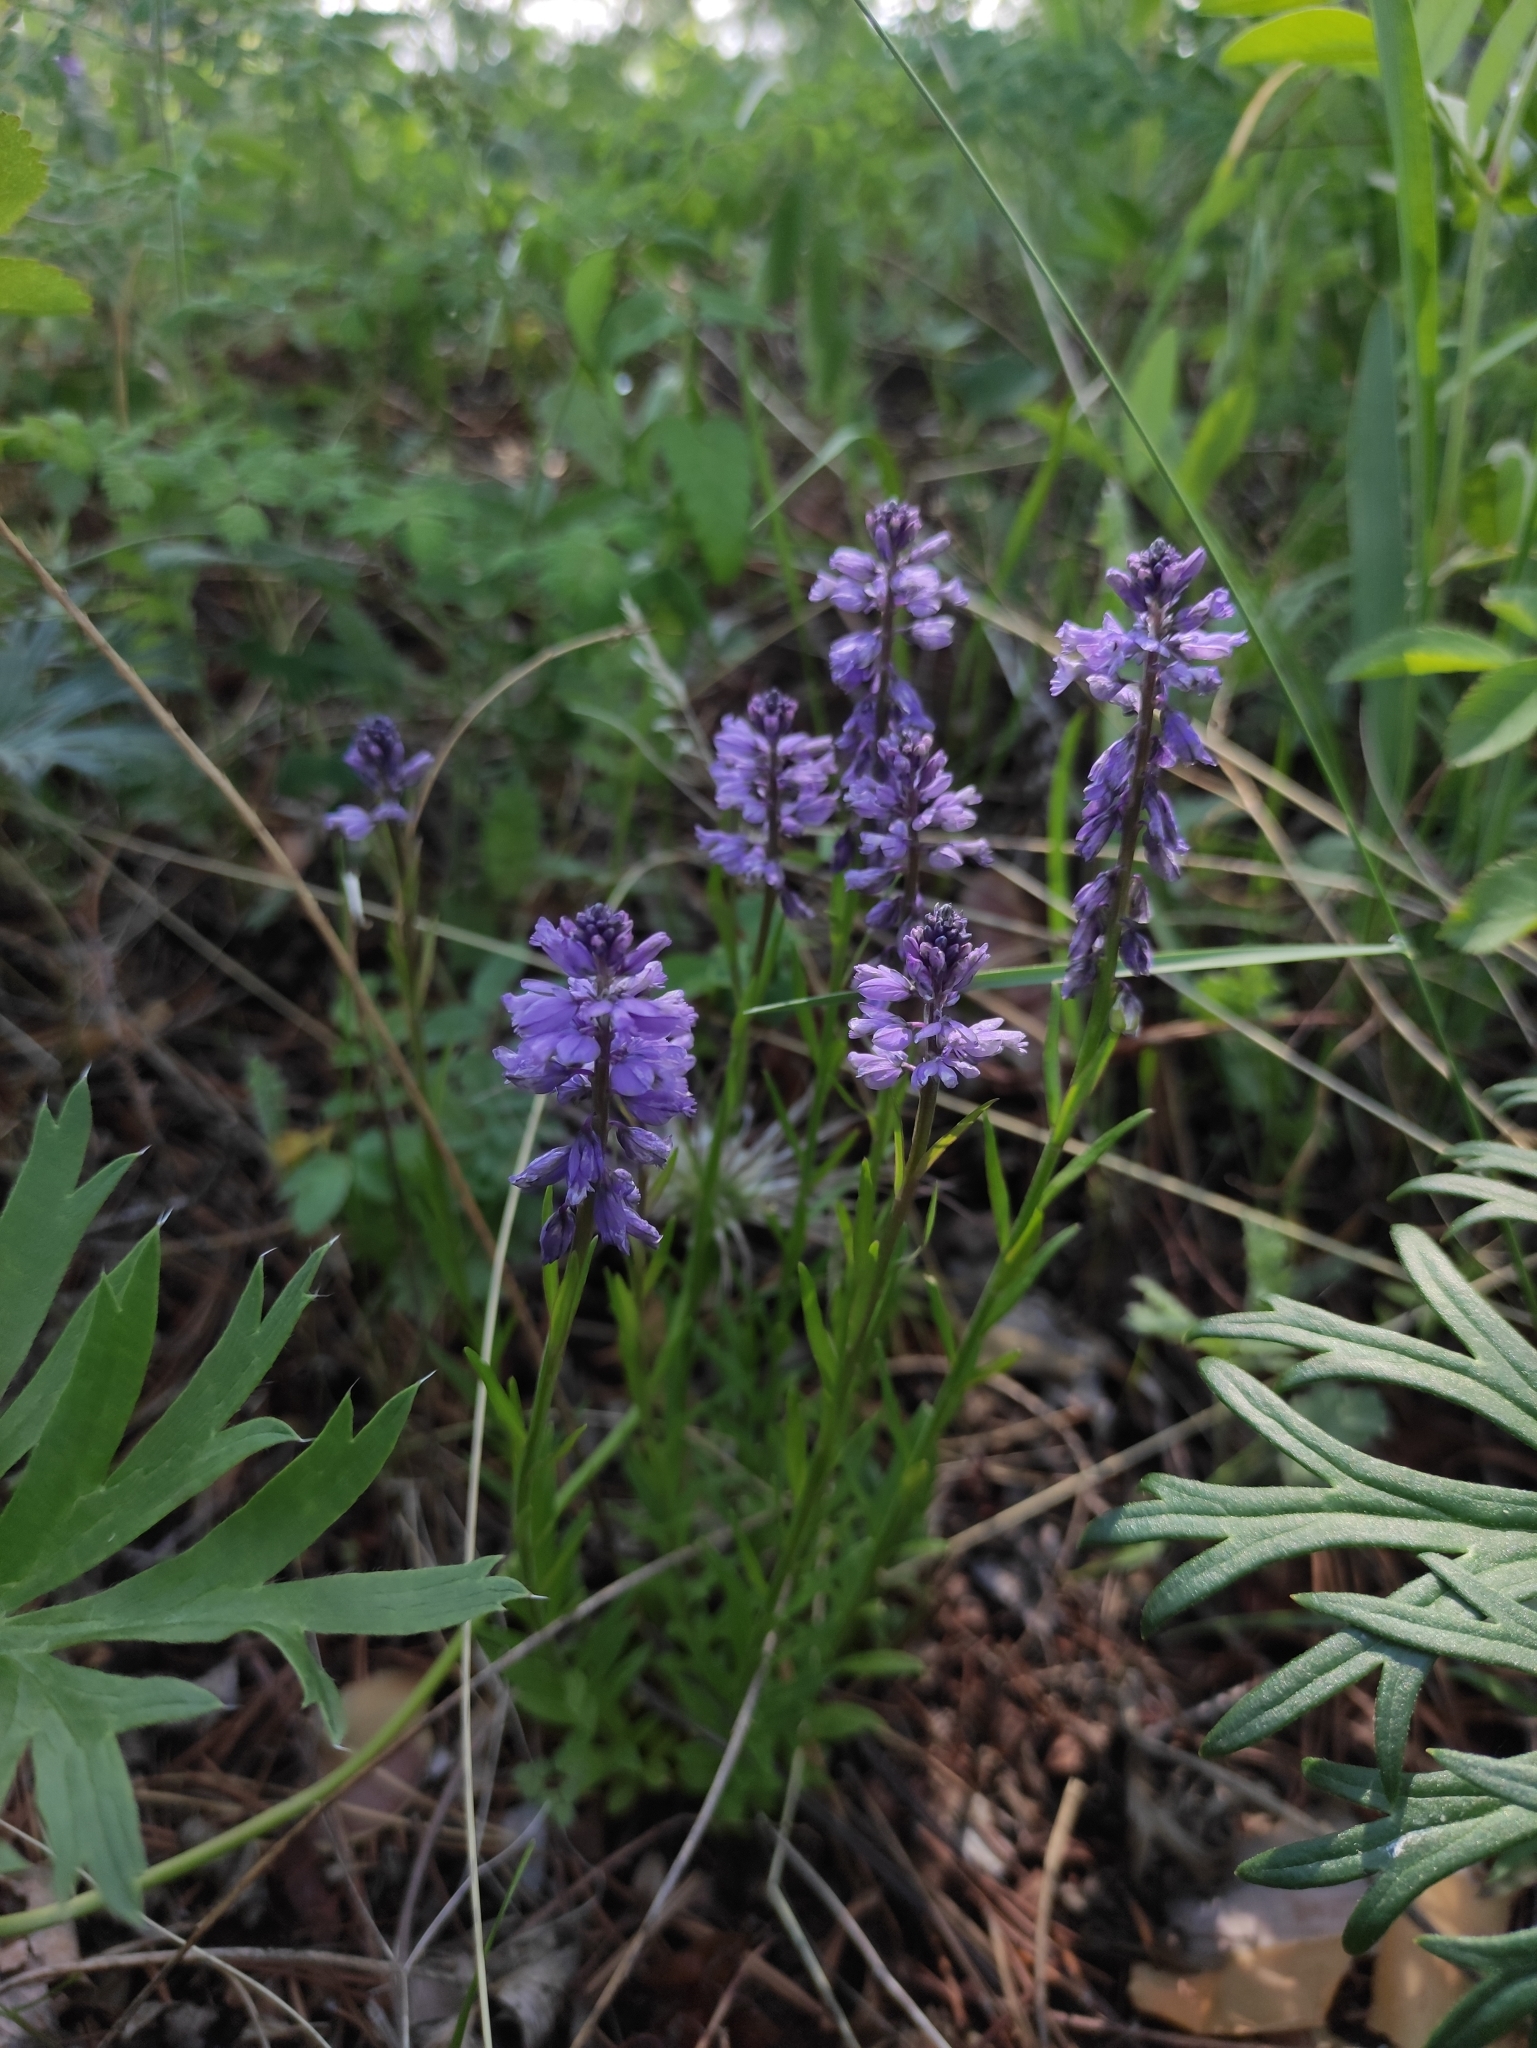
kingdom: Plantae
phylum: Tracheophyta
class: Magnoliopsida
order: Fabales
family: Polygalaceae
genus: Polygala
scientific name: Polygala comosa
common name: Tufted milkwort
